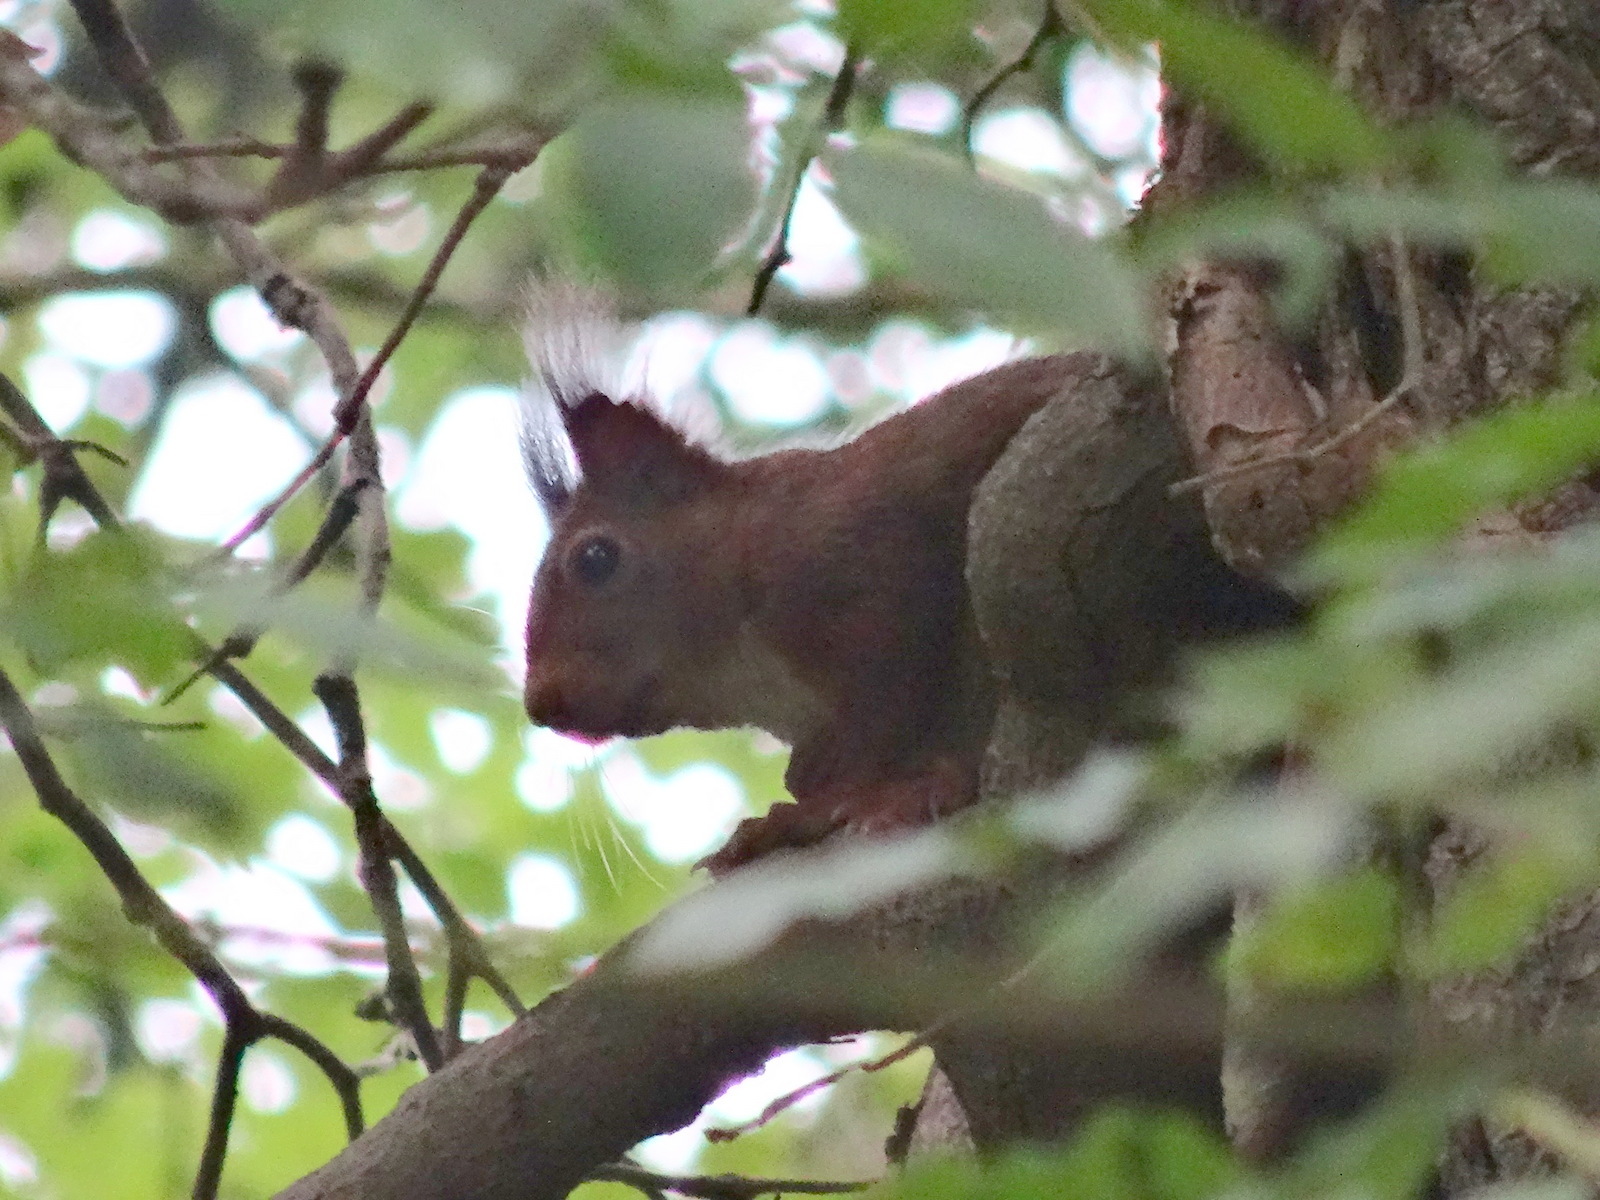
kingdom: Animalia
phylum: Chordata
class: Mammalia
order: Rodentia
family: Sciuridae
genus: Sciurus
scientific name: Sciurus vulgaris
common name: Eurasian red squirrel
